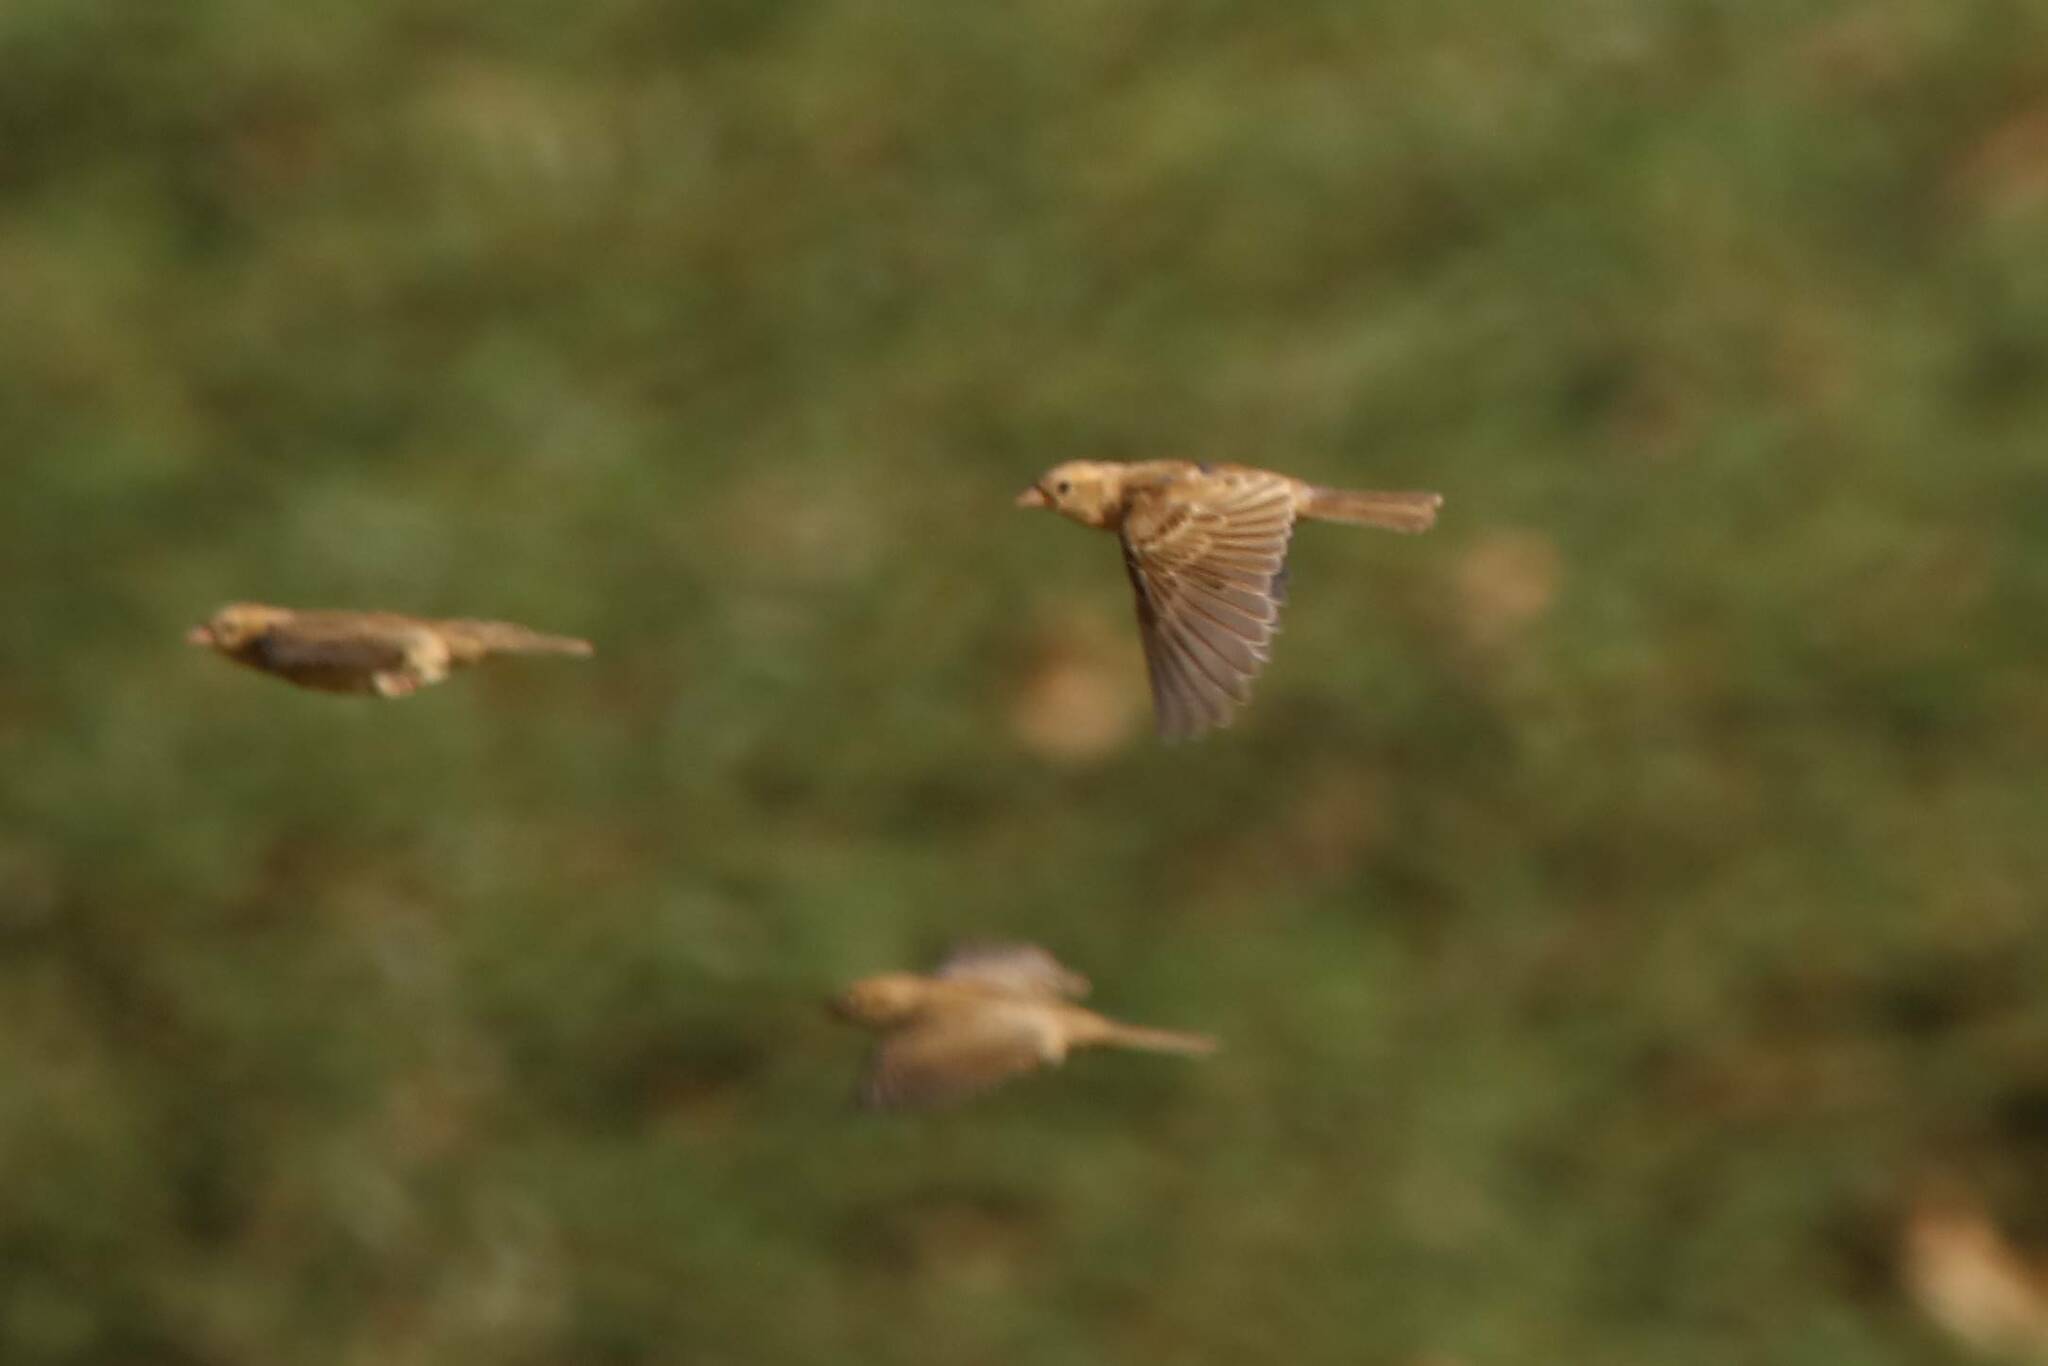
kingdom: Animalia
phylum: Chordata
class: Aves
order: Passeriformes
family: Passeridae
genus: Passer
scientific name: Passer luteus
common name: Sudan golden sparrow
